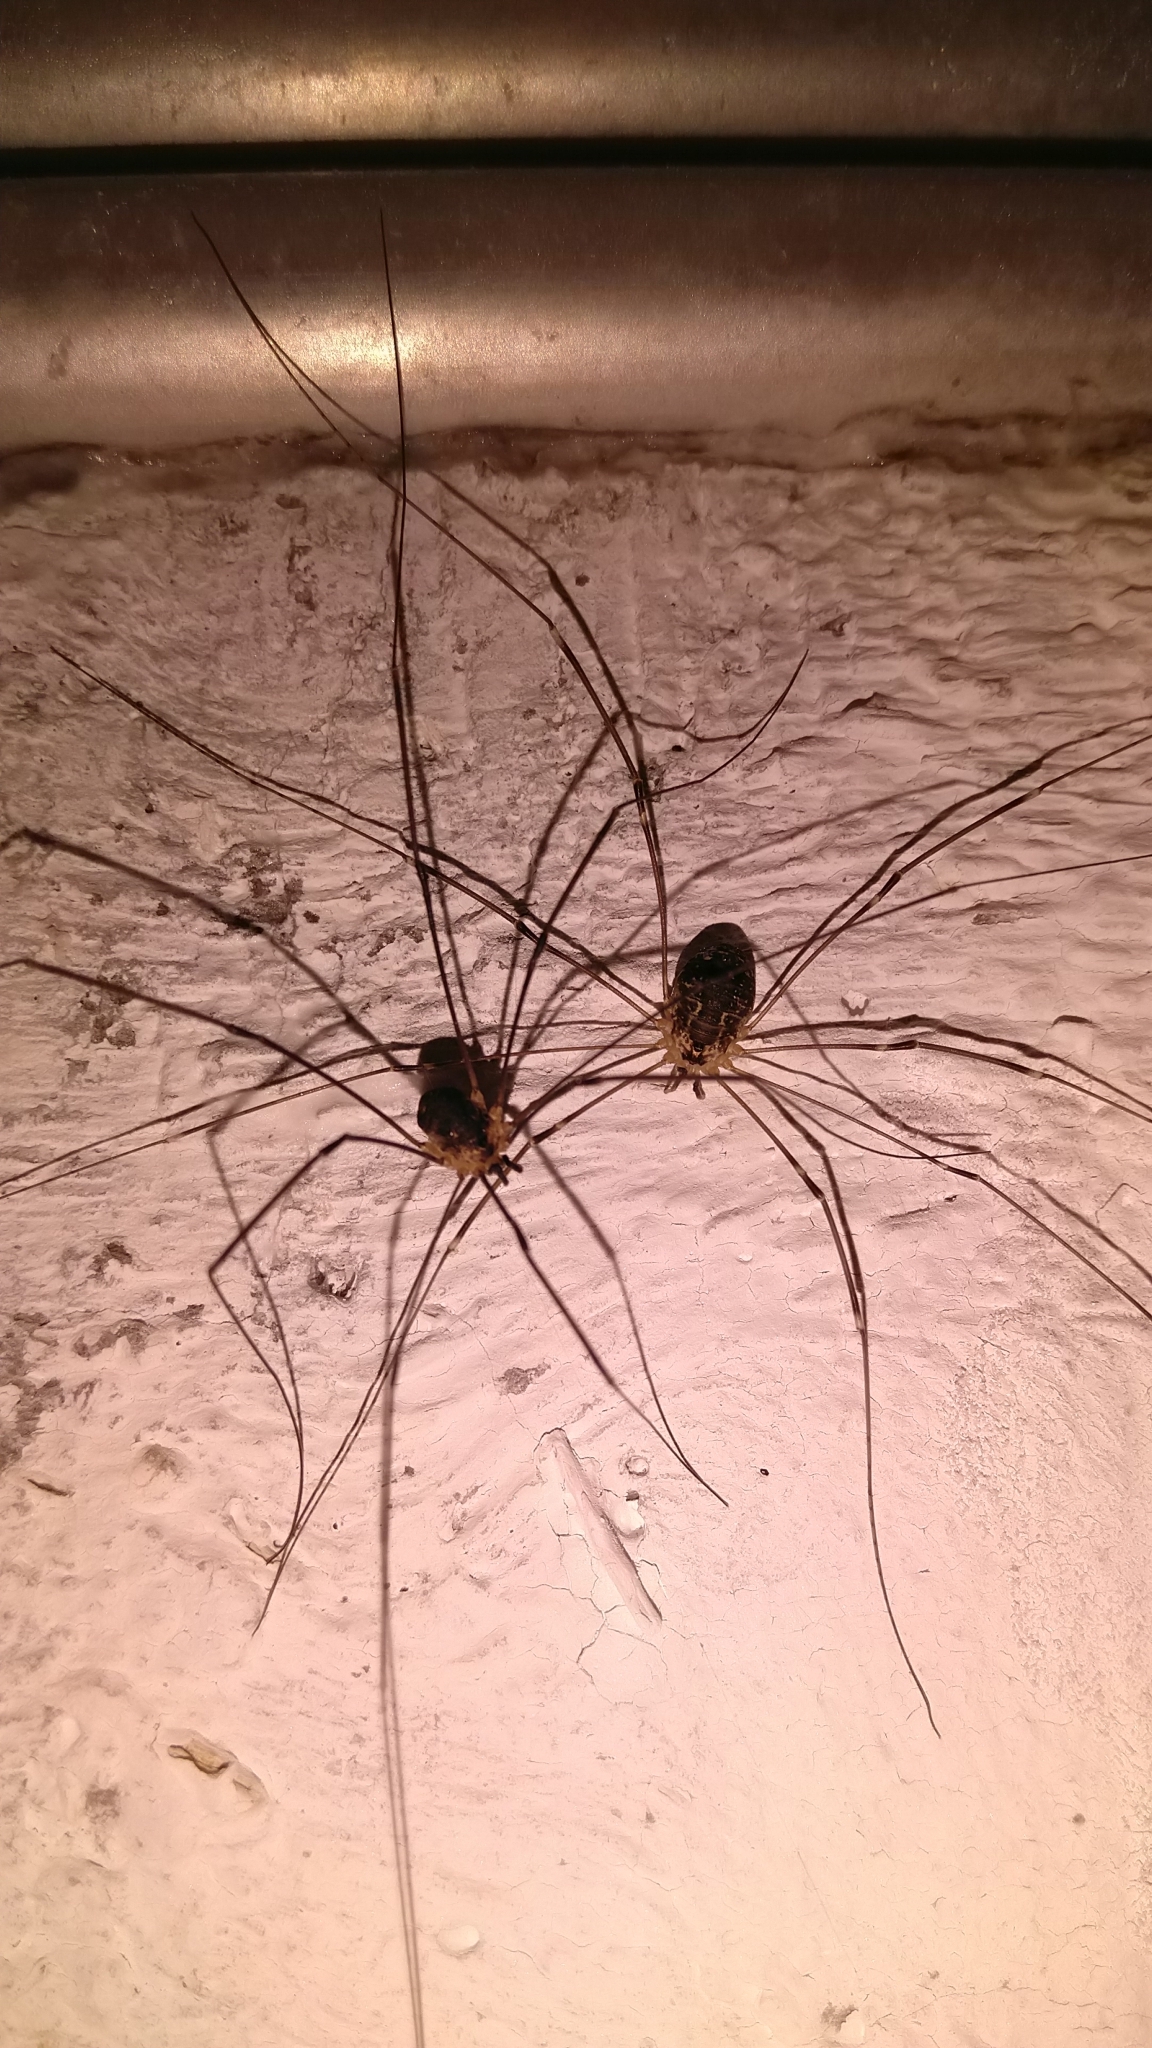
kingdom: Animalia
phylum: Arthropoda
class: Arachnida
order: Opiliones
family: Sclerosomatidae
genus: Leiobunum
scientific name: Leiobunum gracile
